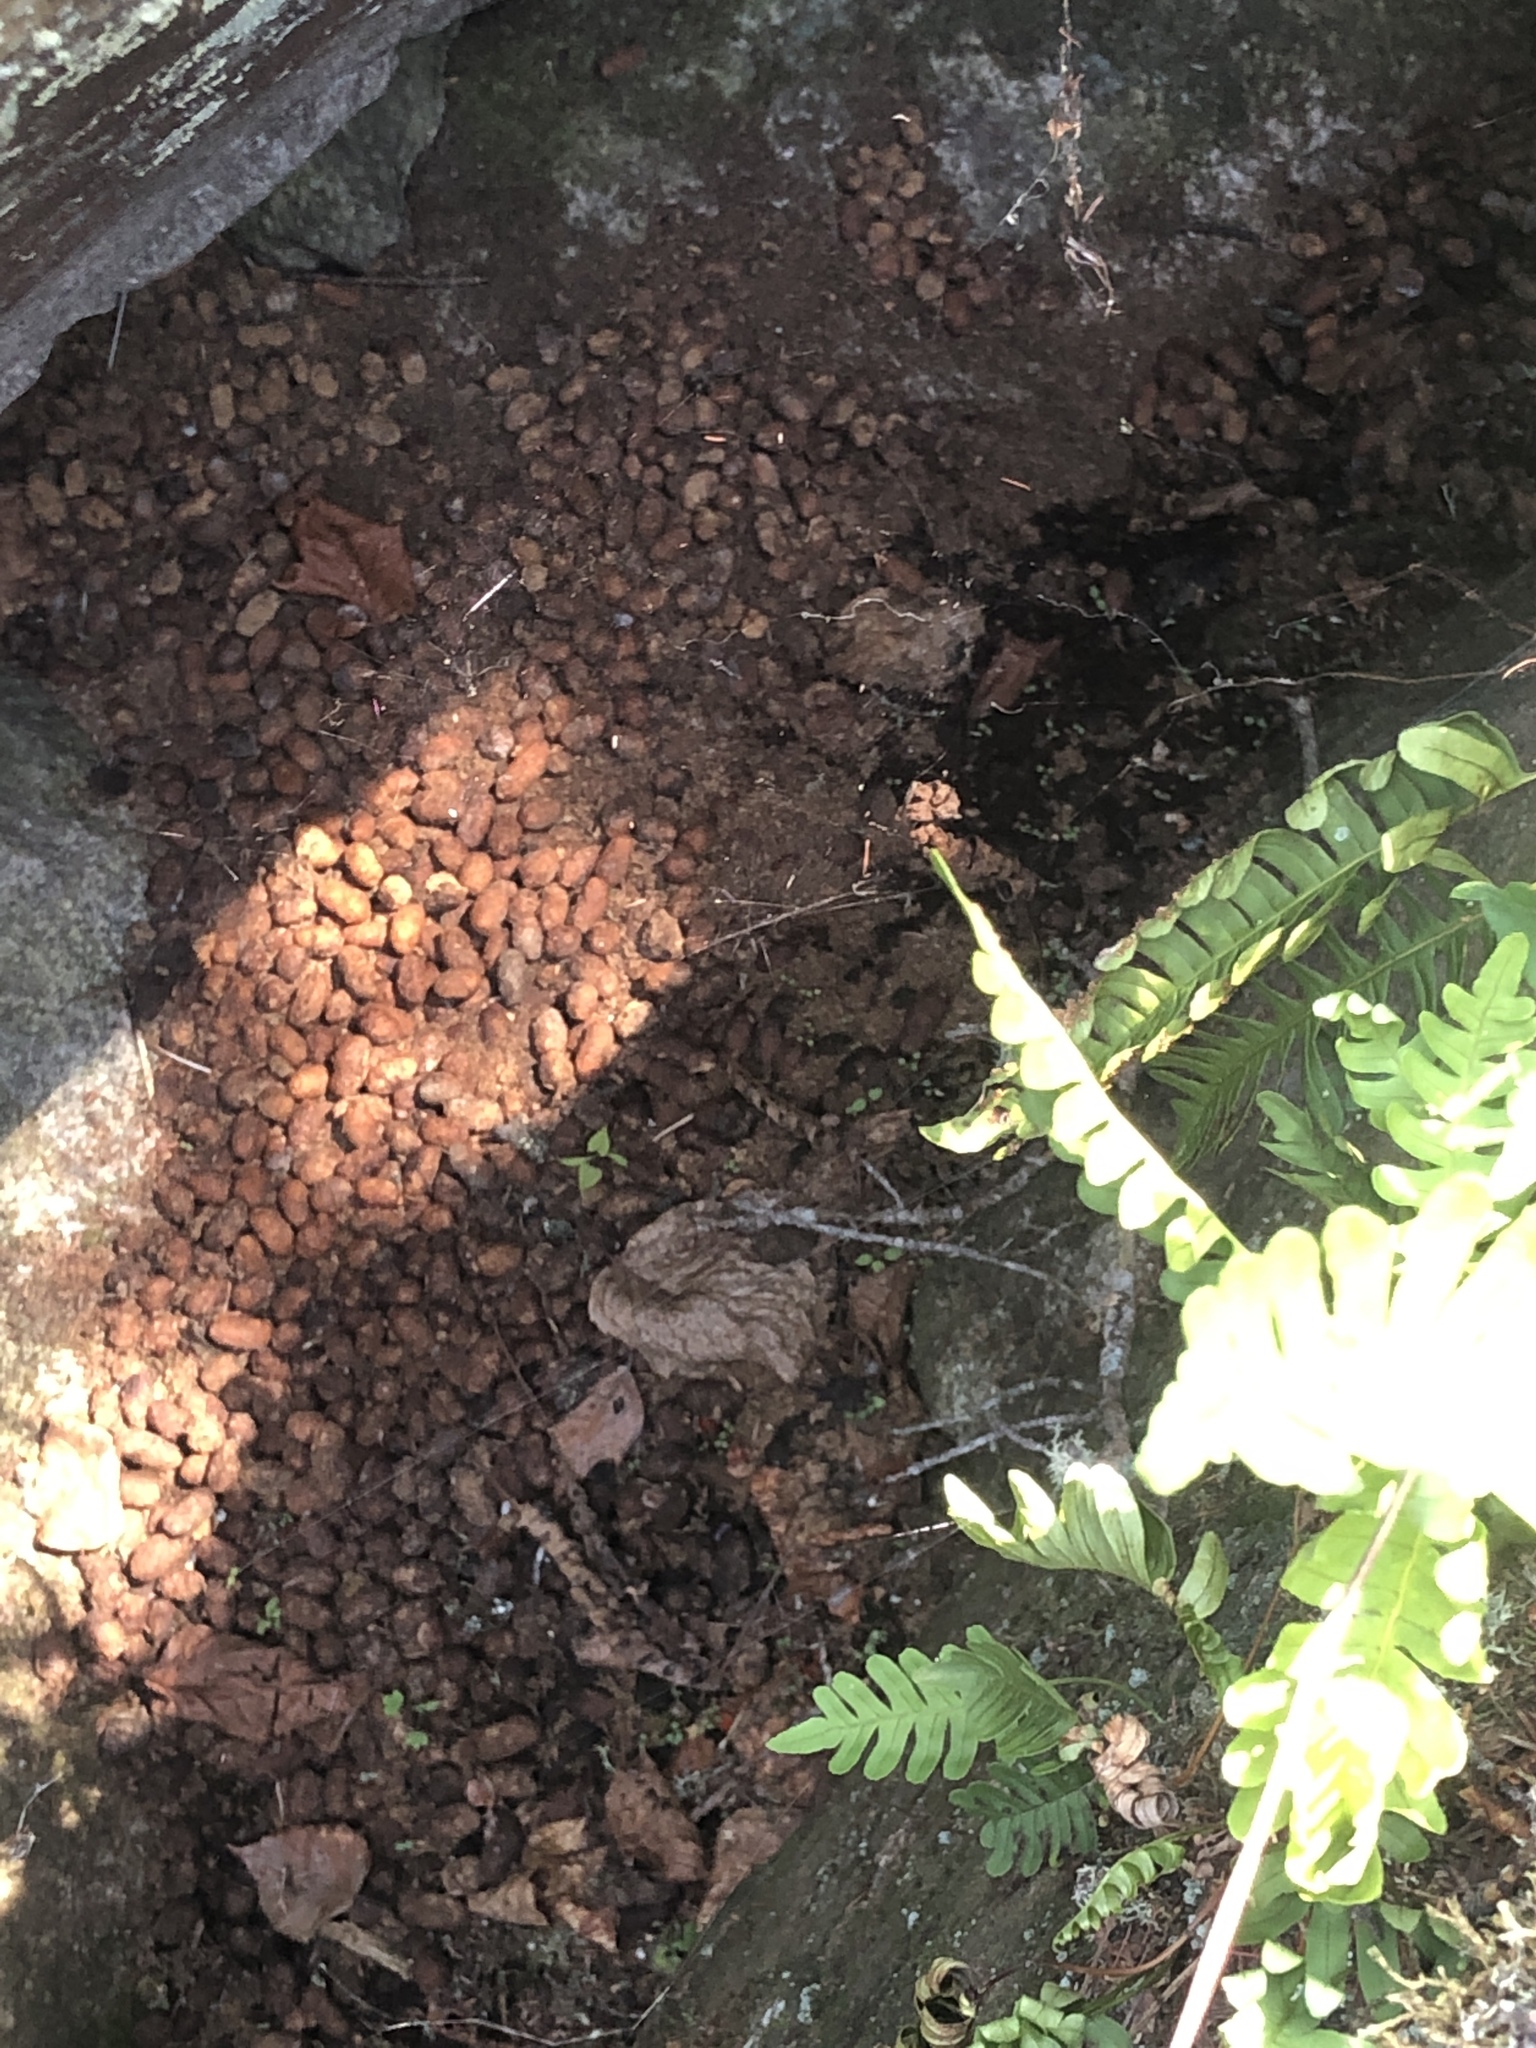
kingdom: Animalia
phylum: Chordata
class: Mammalia
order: Rodentia
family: Erethizontidae
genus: Erethizon
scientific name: Erethizon dorsatus
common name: North american porcupine
